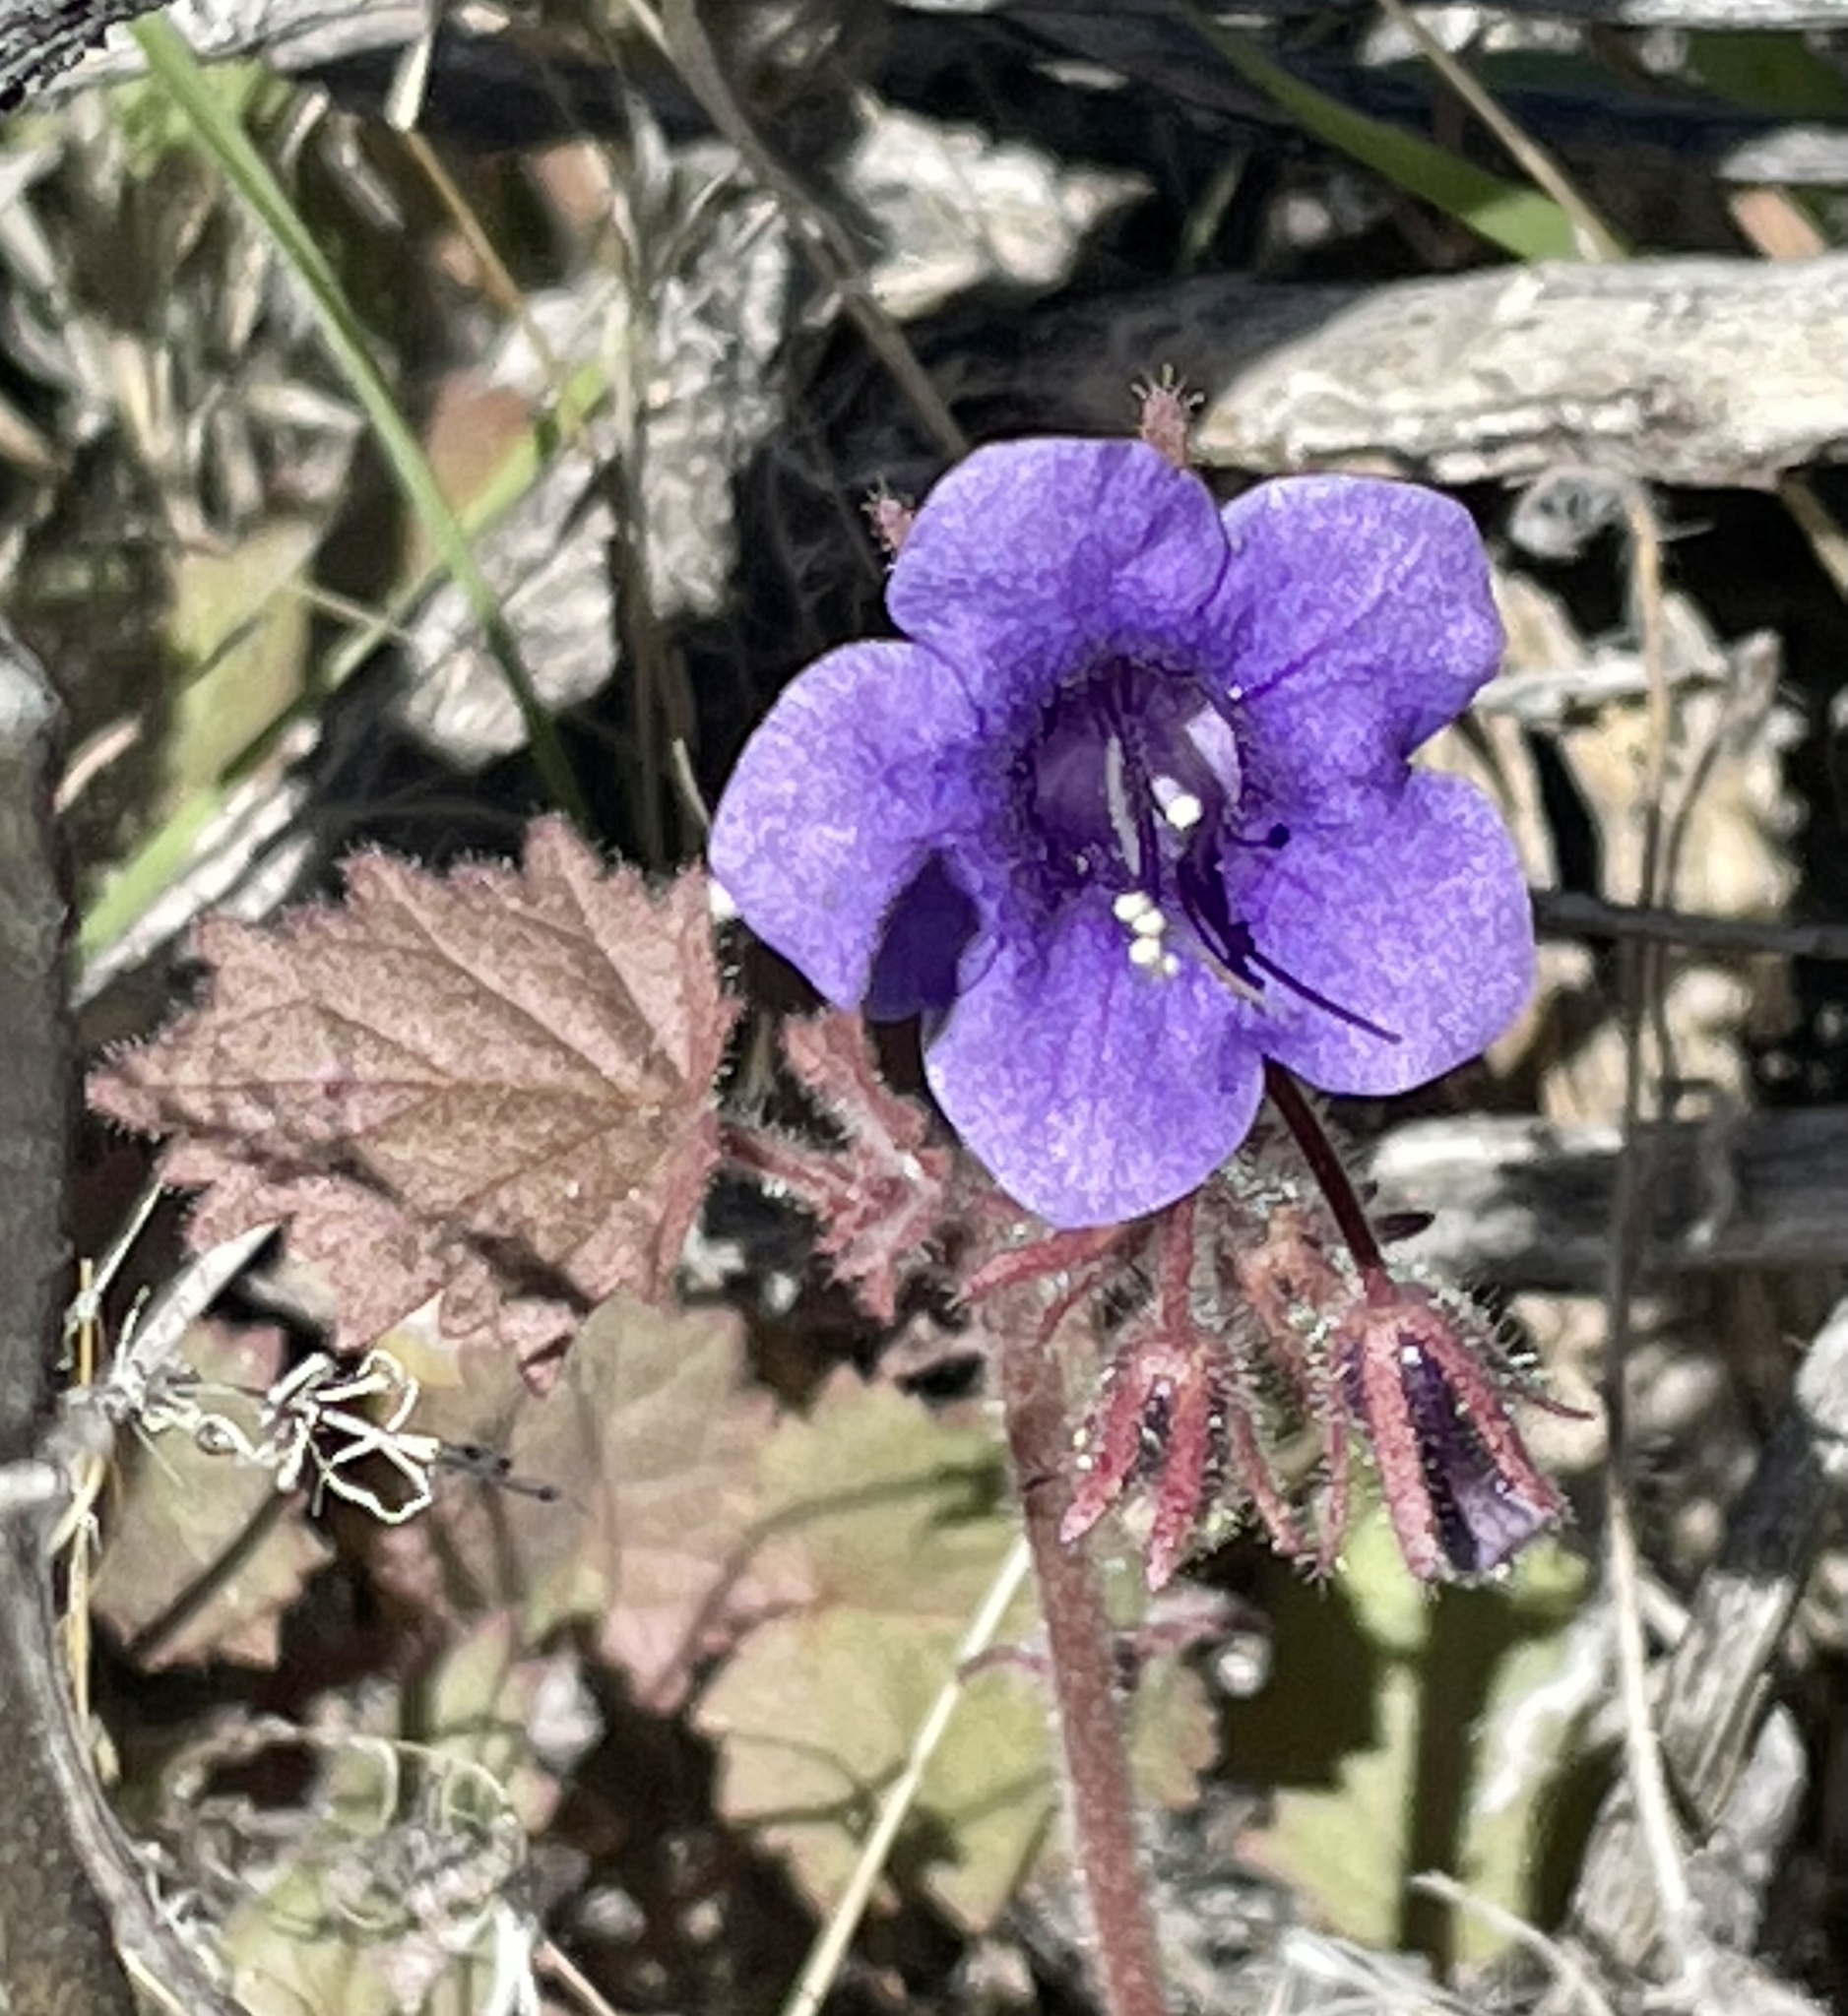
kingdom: Plantae
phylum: Tracheophyta
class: Magnoliopsida
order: Boraginales
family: Hydrophyllaceae
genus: Phacelia
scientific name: Phacelia minor
